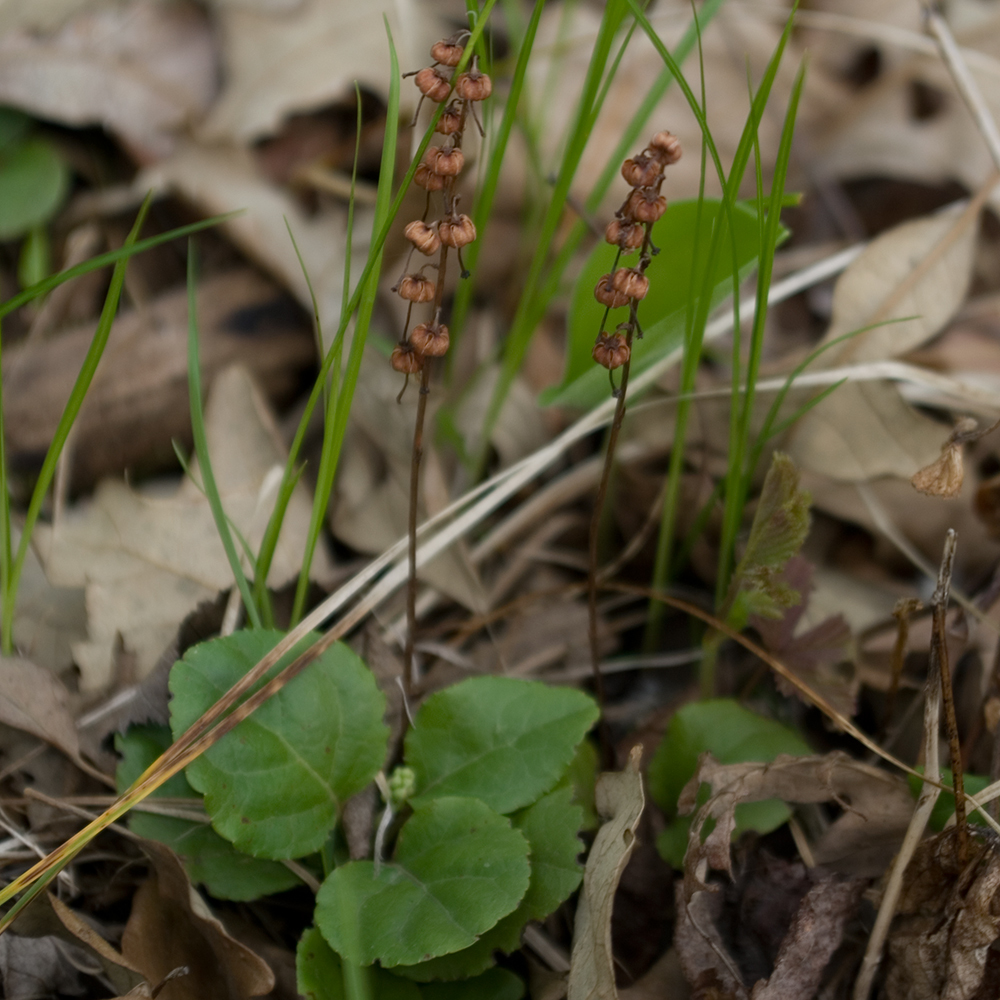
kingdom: Plantae
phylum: Tracheophyta
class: Magnoliopsida
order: Ericales
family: Ericaceae
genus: Pyrola
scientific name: Pyrola asarifolia
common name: Bog wintergreen
